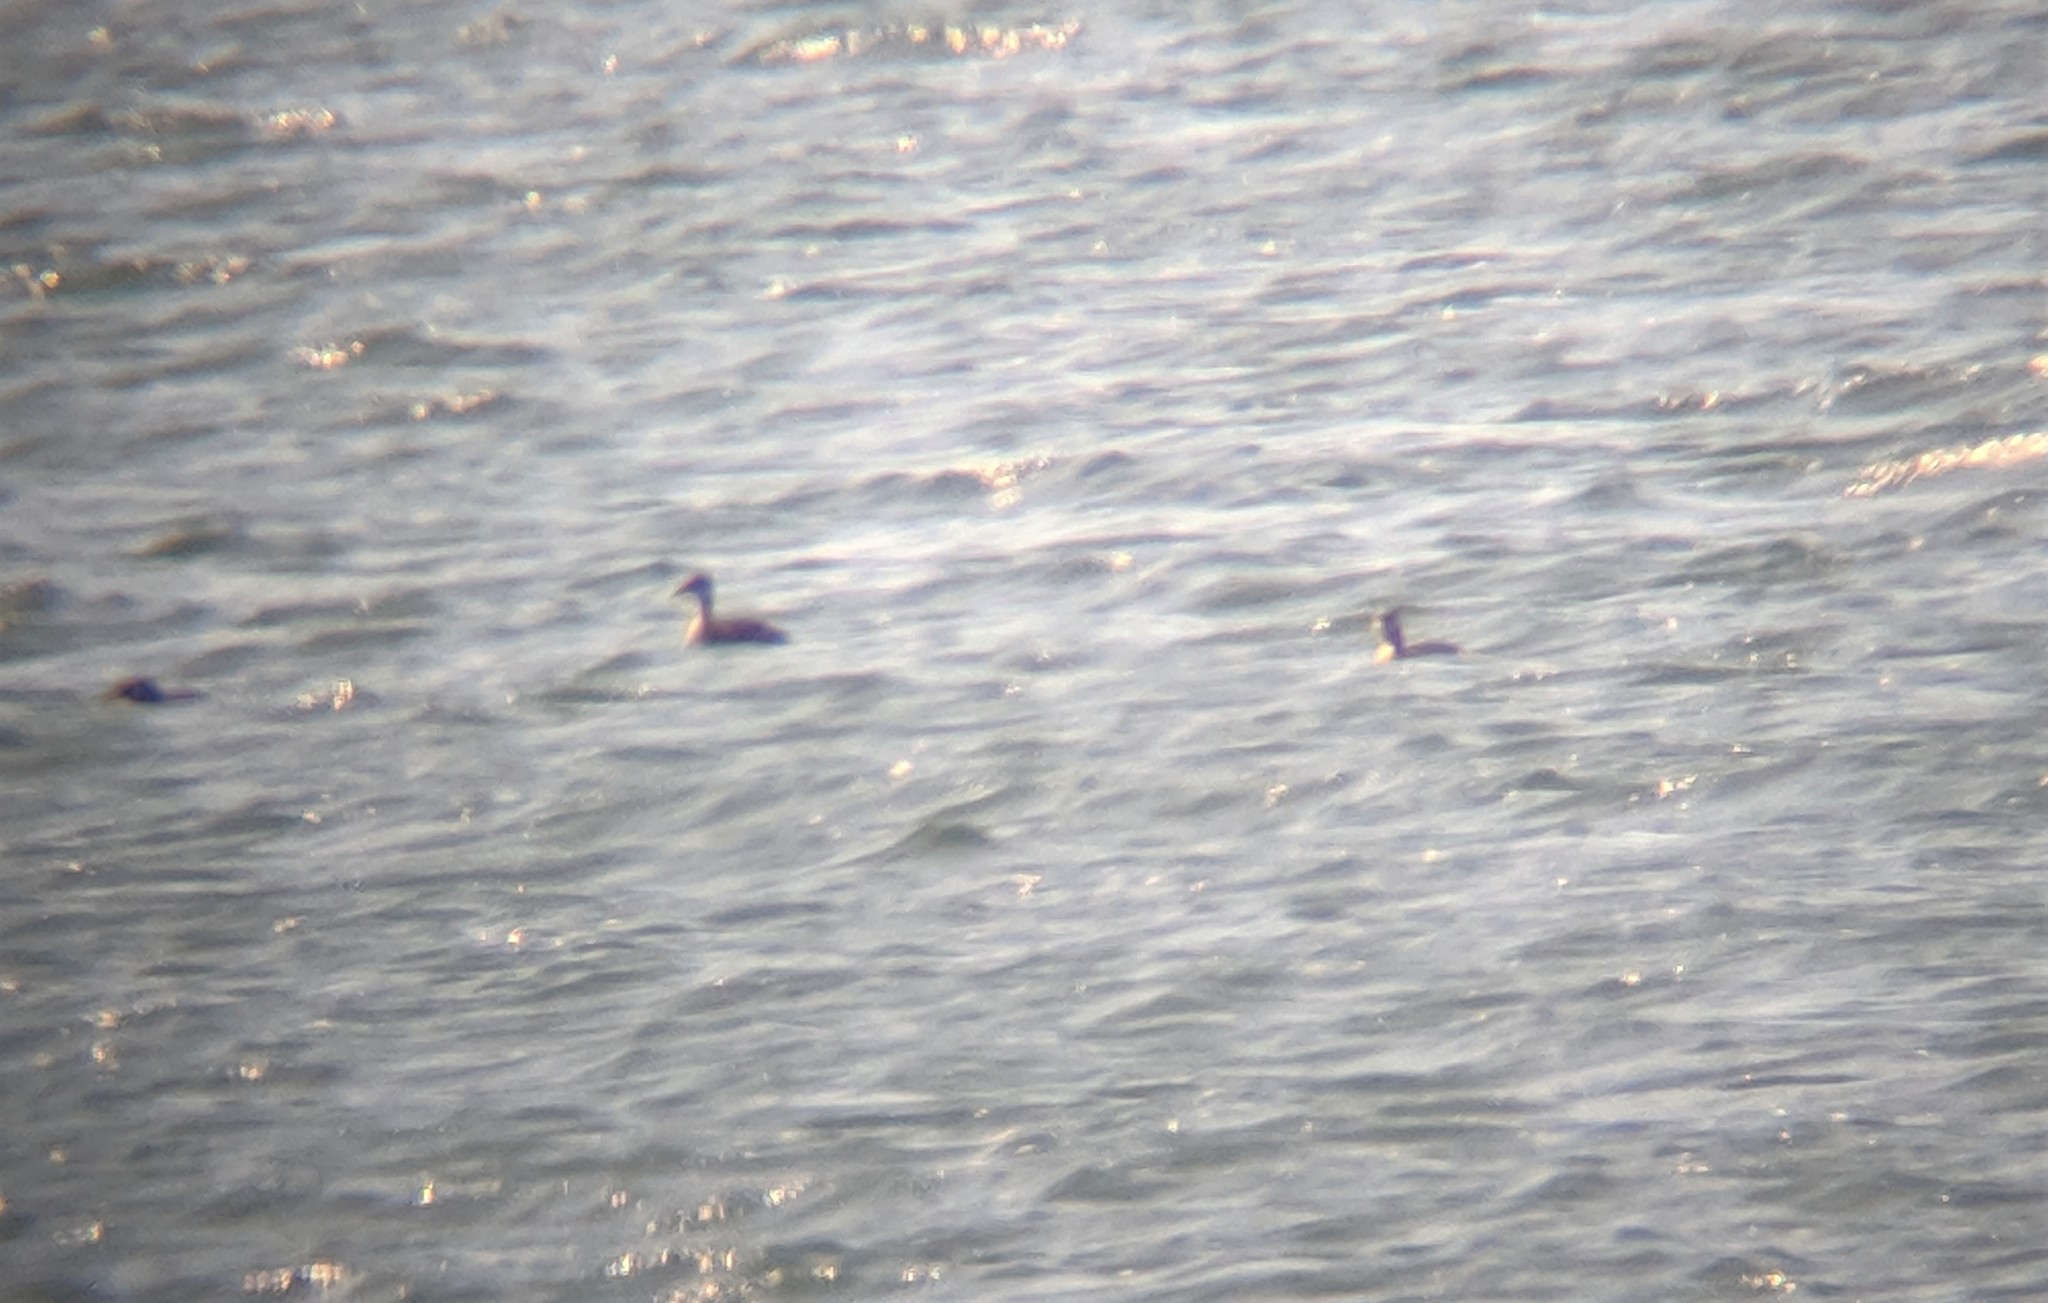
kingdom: Animalia
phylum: Chordata
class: Aves
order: Podicipediformes
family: Podicipedidae
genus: Podiceps
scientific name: Podiceps grisegena
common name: Red-necked grebe
